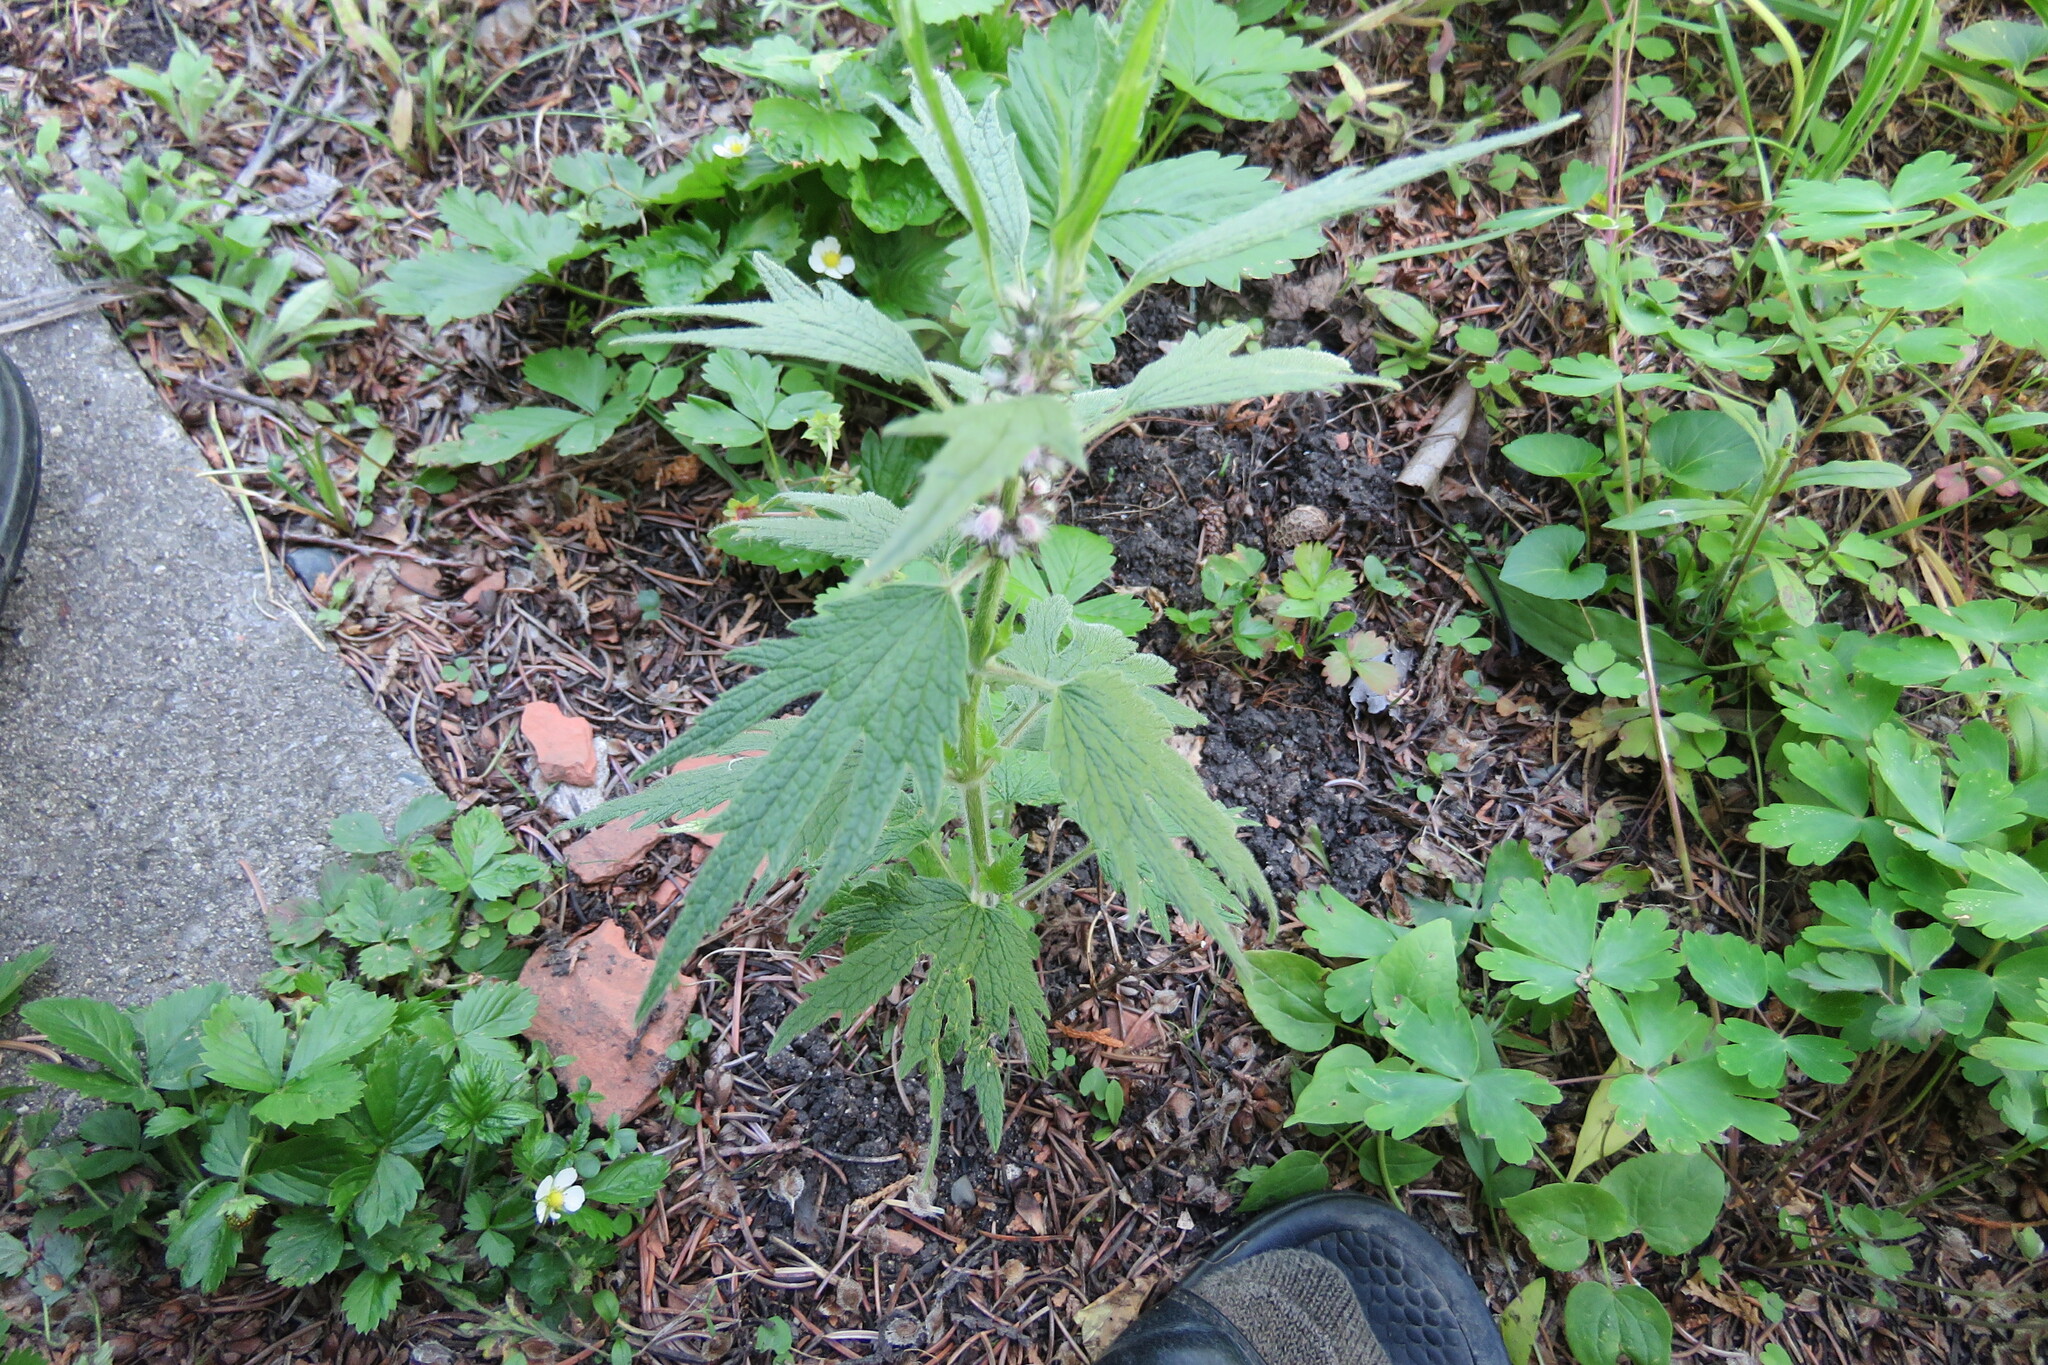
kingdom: Plantae
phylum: Tracheophyta
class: Magnoliopsida
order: Lamiales
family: Lamiaceae
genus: Leonurus
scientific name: Leonurus quinquelobatus
